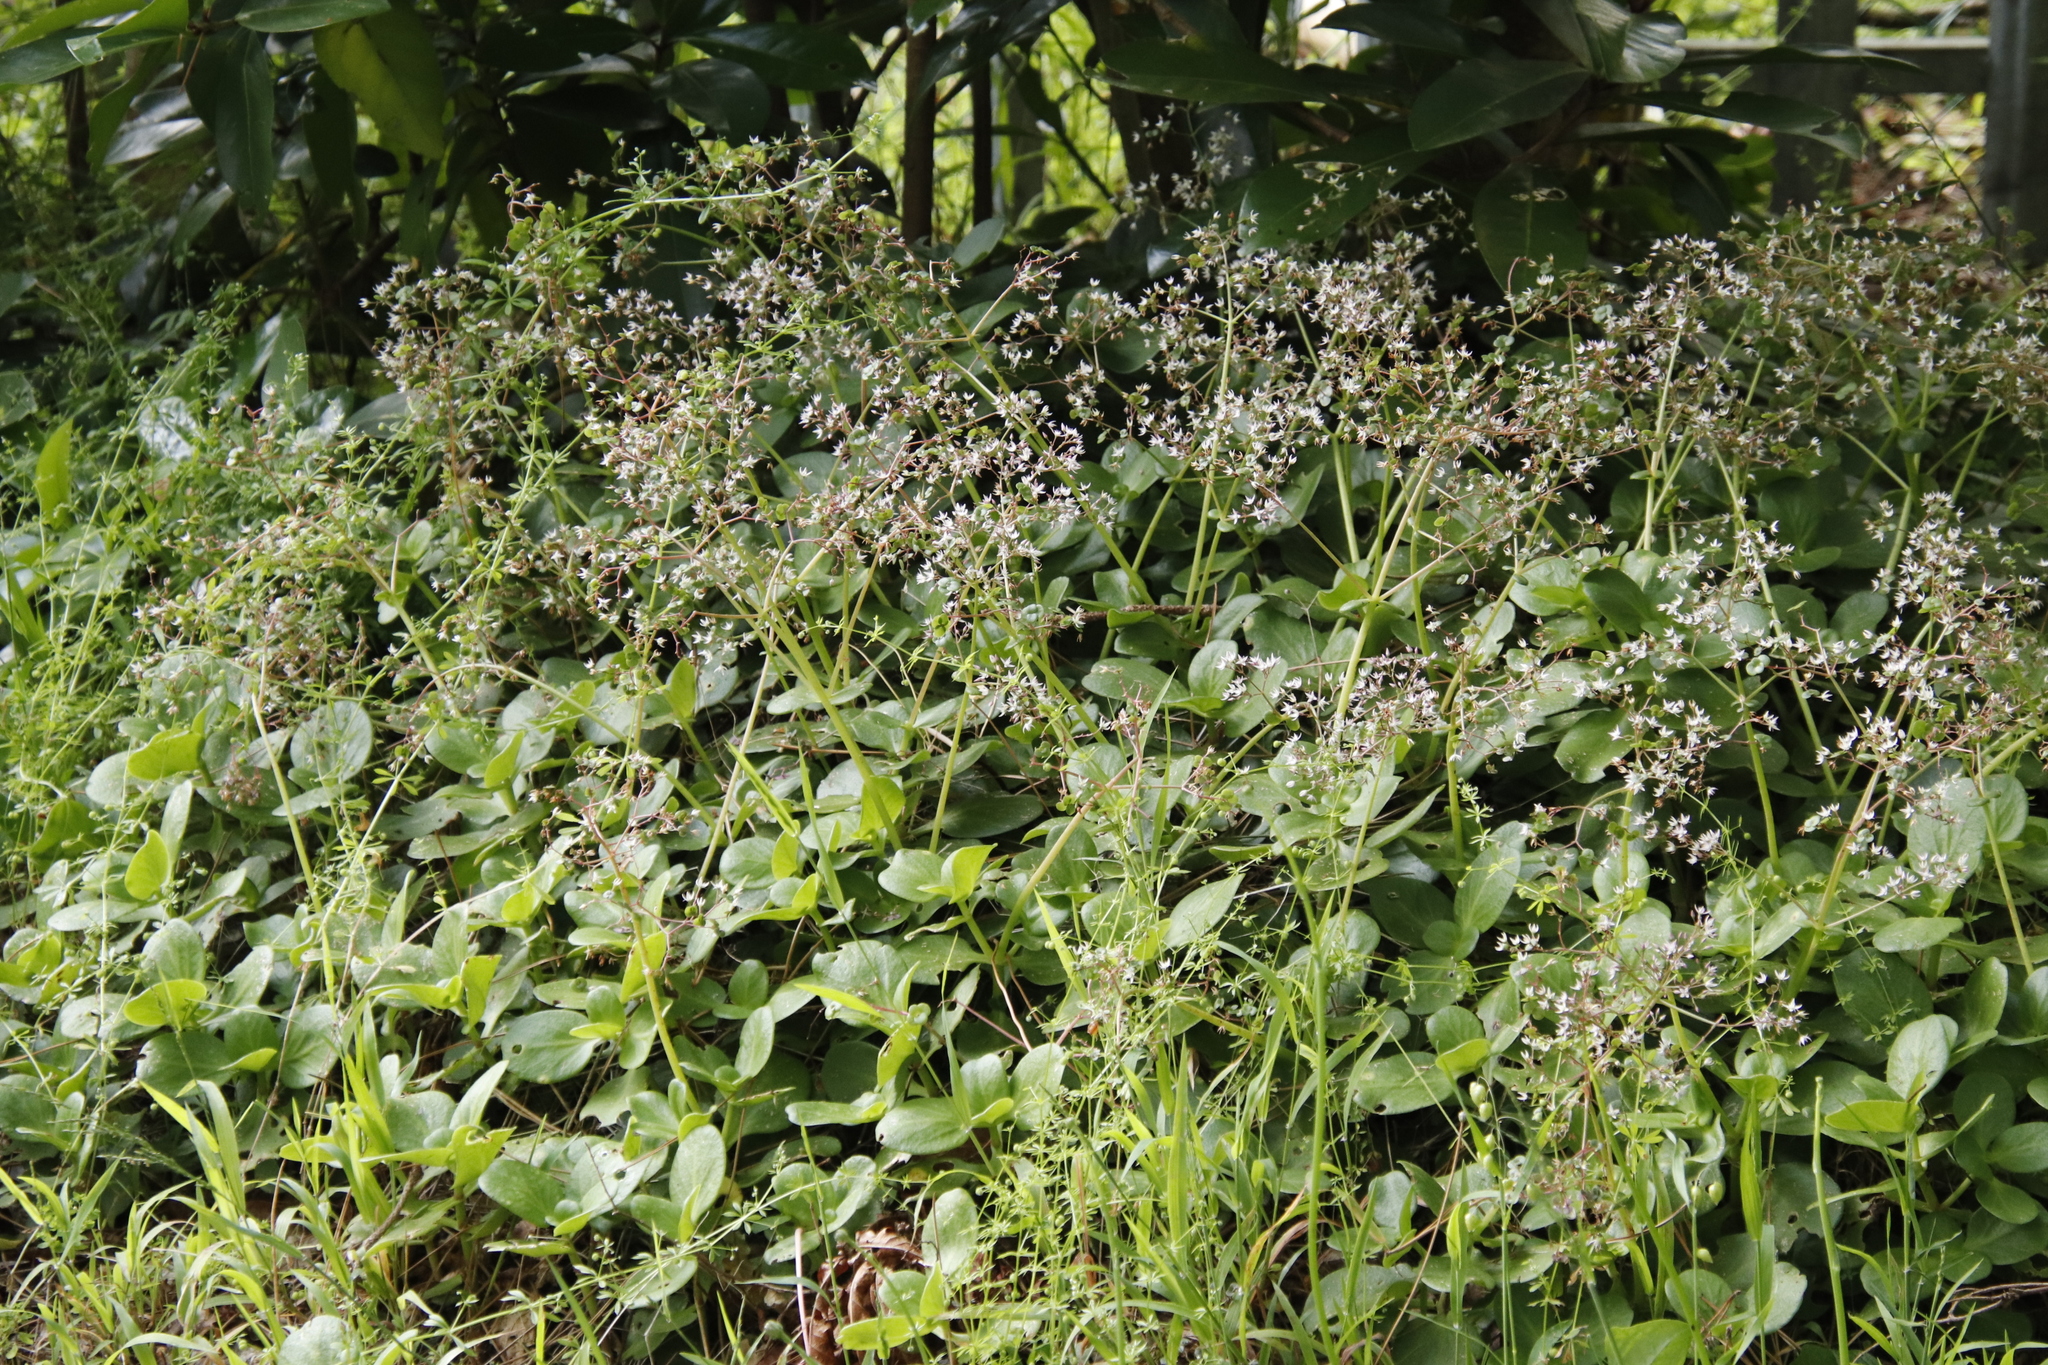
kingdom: Plantae
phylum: Tracheophyta
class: Magnoliopsida
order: Saxifragales
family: Crassulaceae
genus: Crassula
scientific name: Crassula multicava
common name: Cape province pygmyweed
